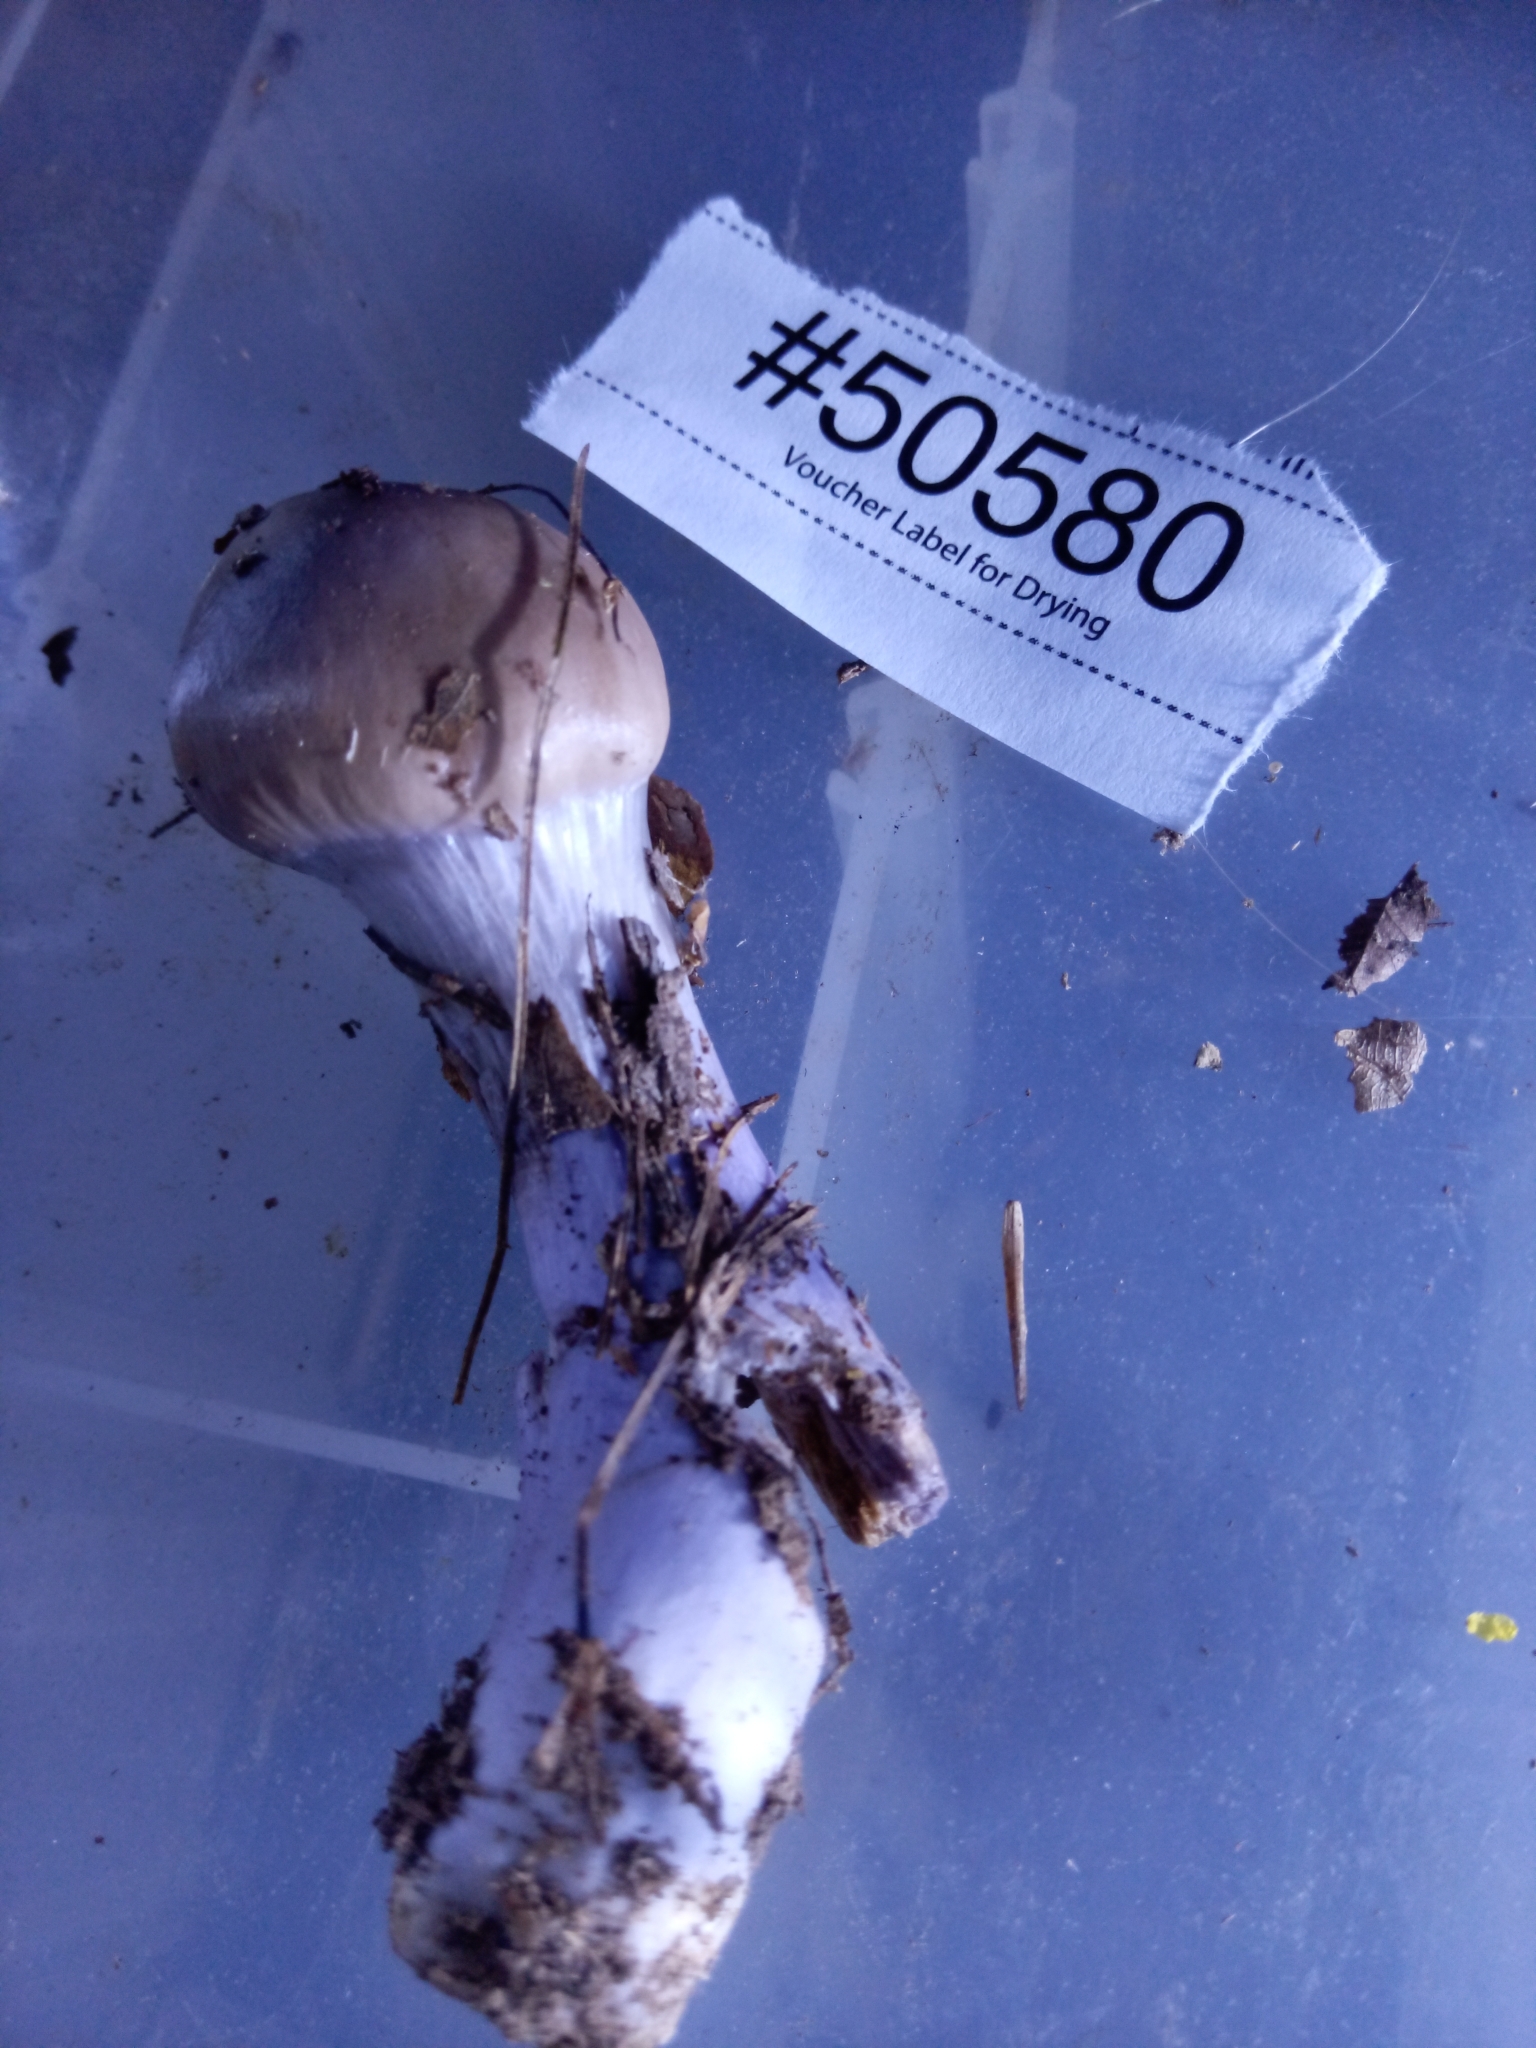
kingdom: Fungi
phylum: Basidiomycota
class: Agaricomycetes
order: Agaricales
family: Cortinariaceae
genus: Cortinarius
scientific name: Cortinarius splendidus
